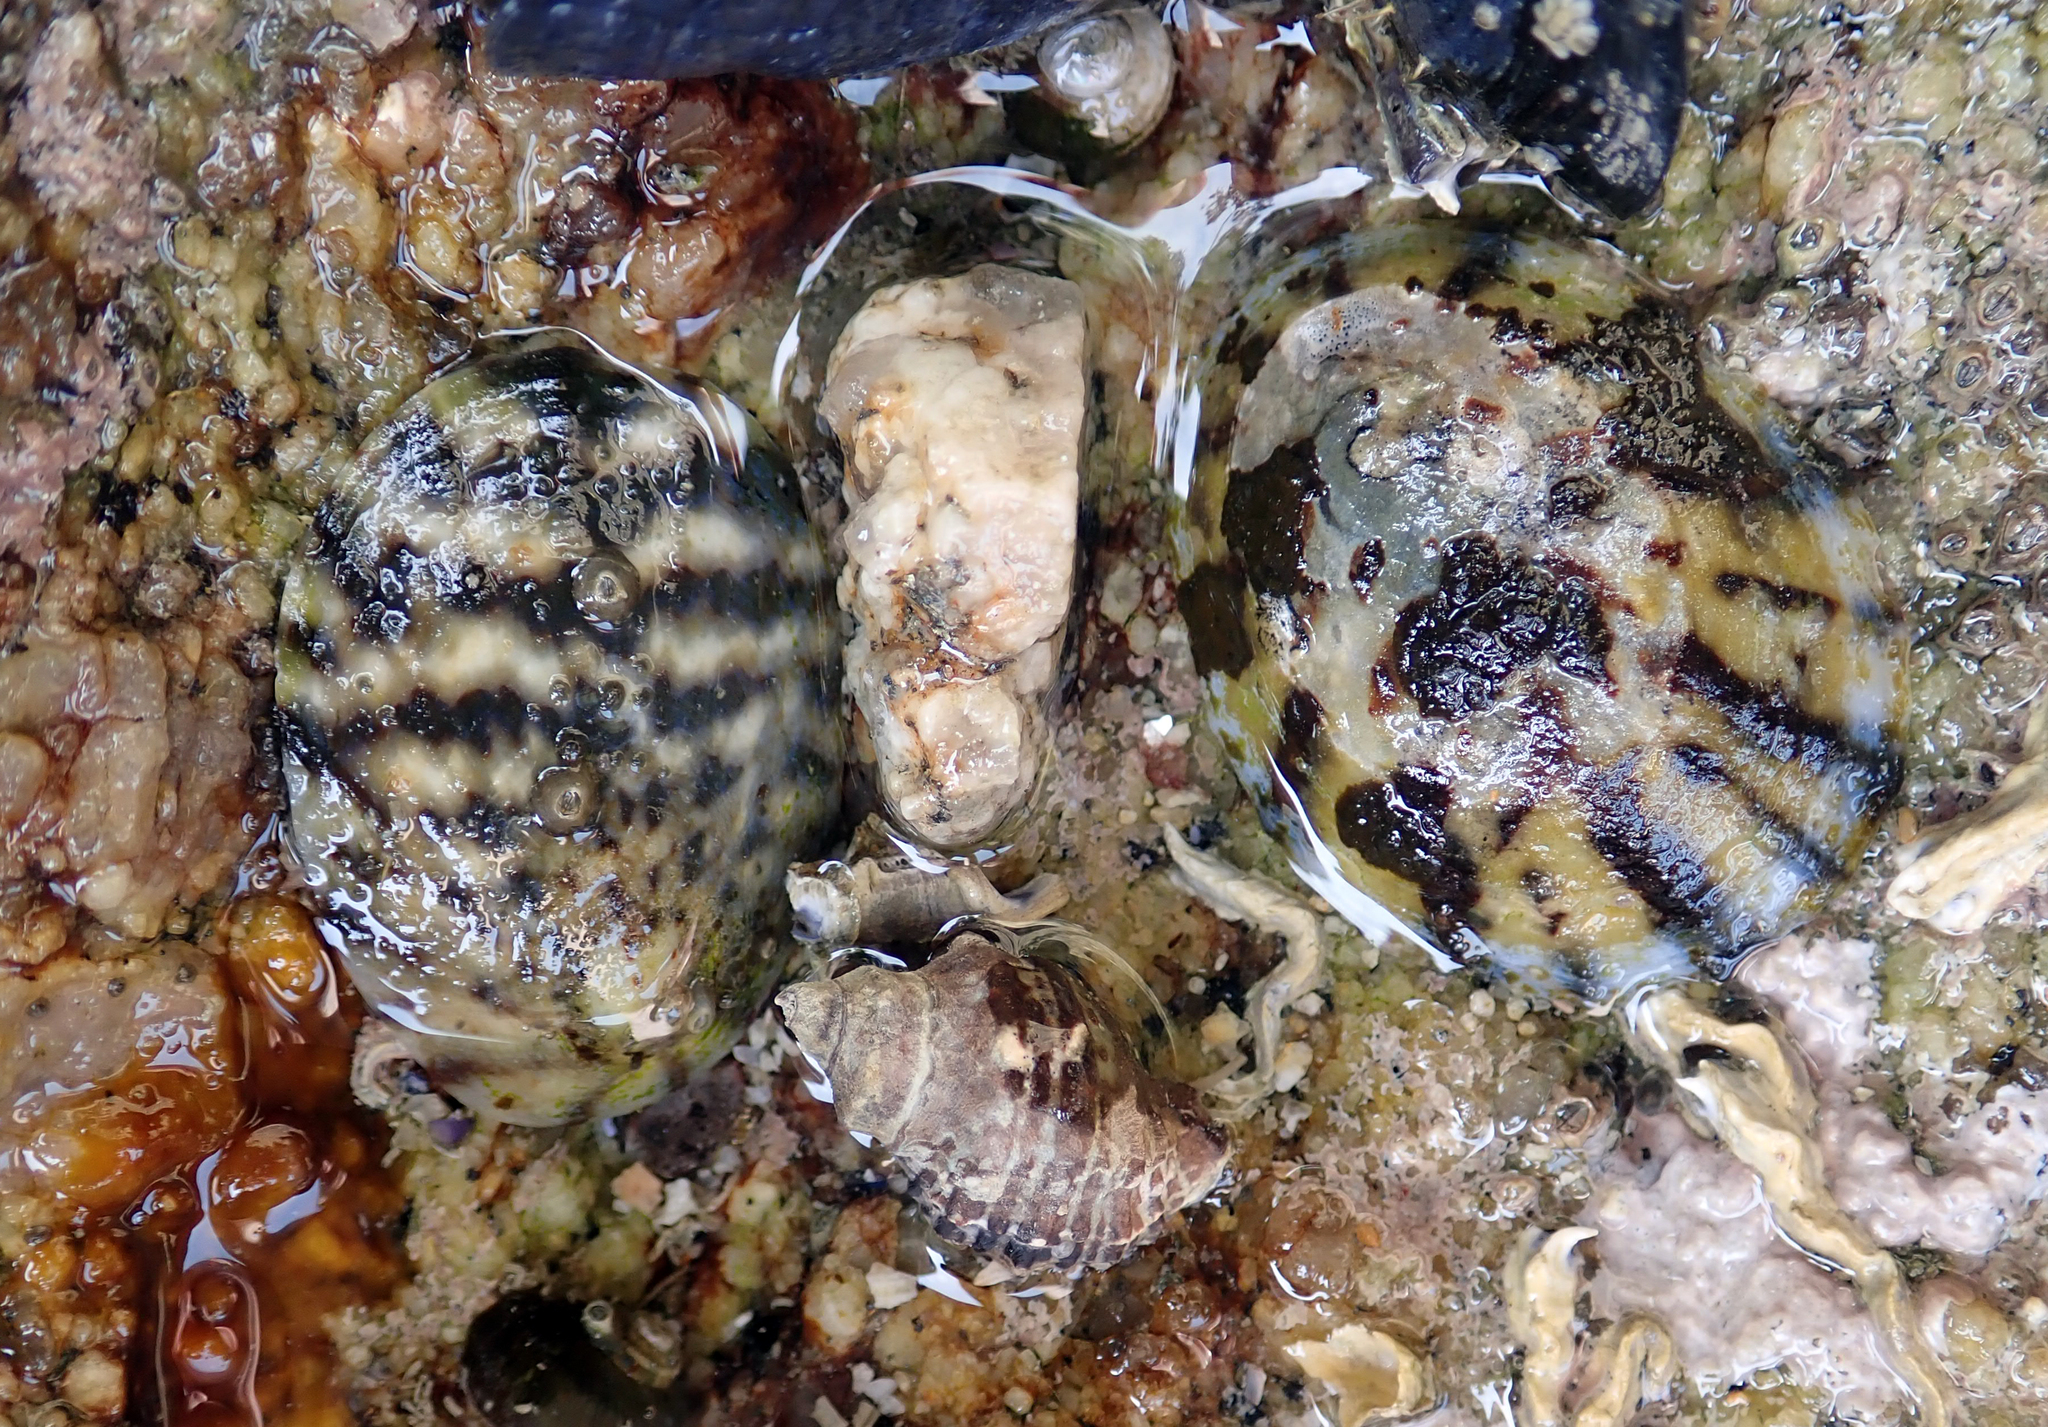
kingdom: Animalia
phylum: Mollusca
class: Gastropoda
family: Nacellidae
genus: Cellana
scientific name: Cellana radians
